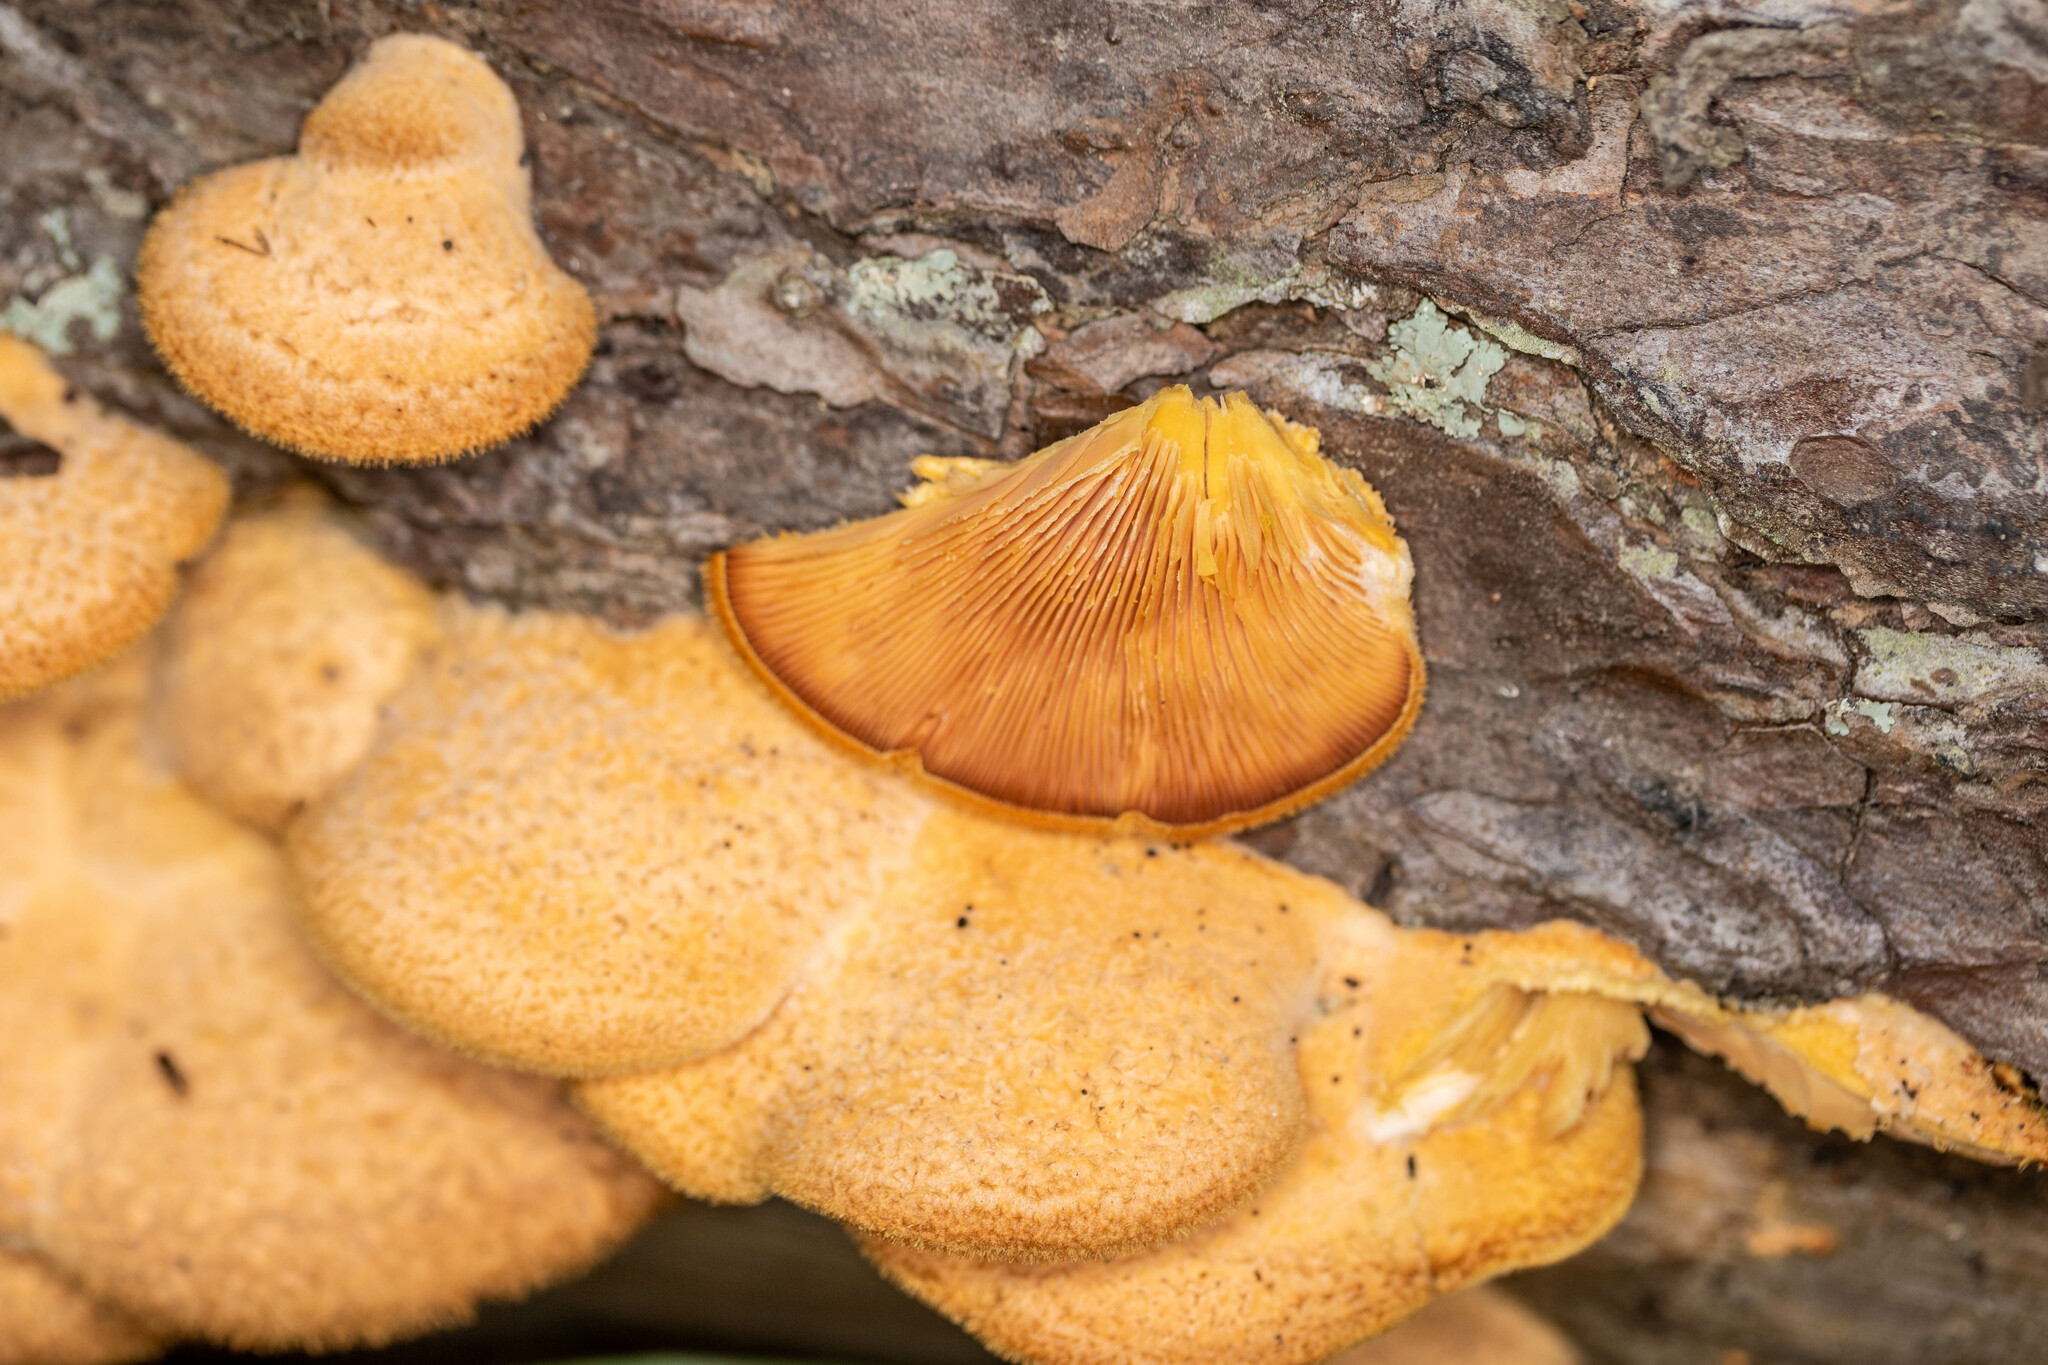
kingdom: Fungi
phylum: Basidiomycota
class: Agaricomycetes
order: Agaricales
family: Phyllotopsidaceae
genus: Phyllotopsis
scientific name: Phyllotopsis nidulans
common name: Orange mock oyster
